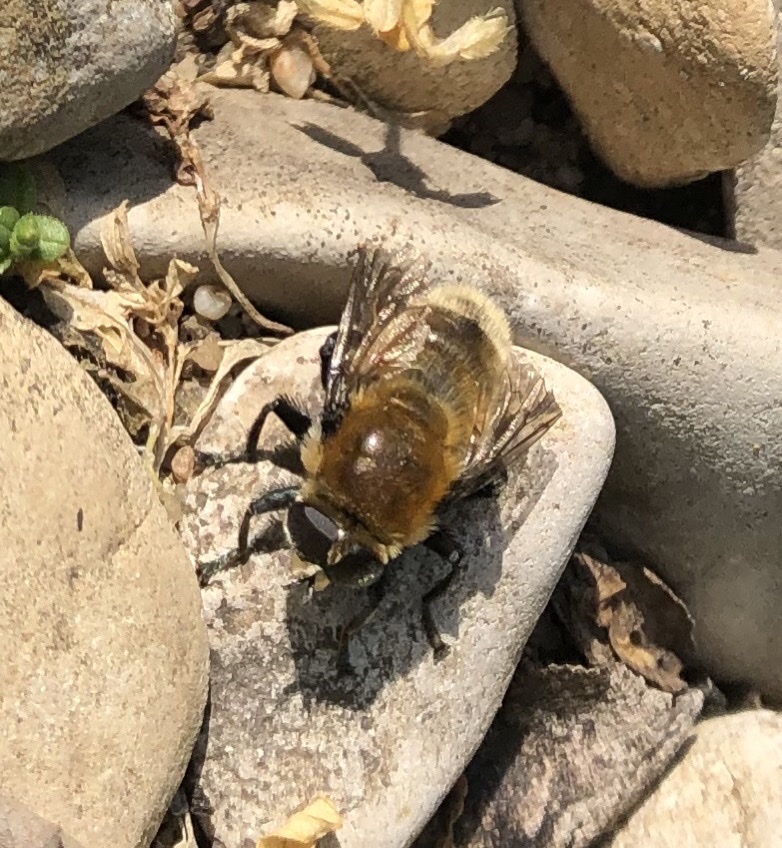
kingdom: Animalia
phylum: Arthropoda
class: Insecta
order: Diptera
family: Syrphidae
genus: Merodon
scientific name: Merodon equestris
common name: Greater bulb-fly
